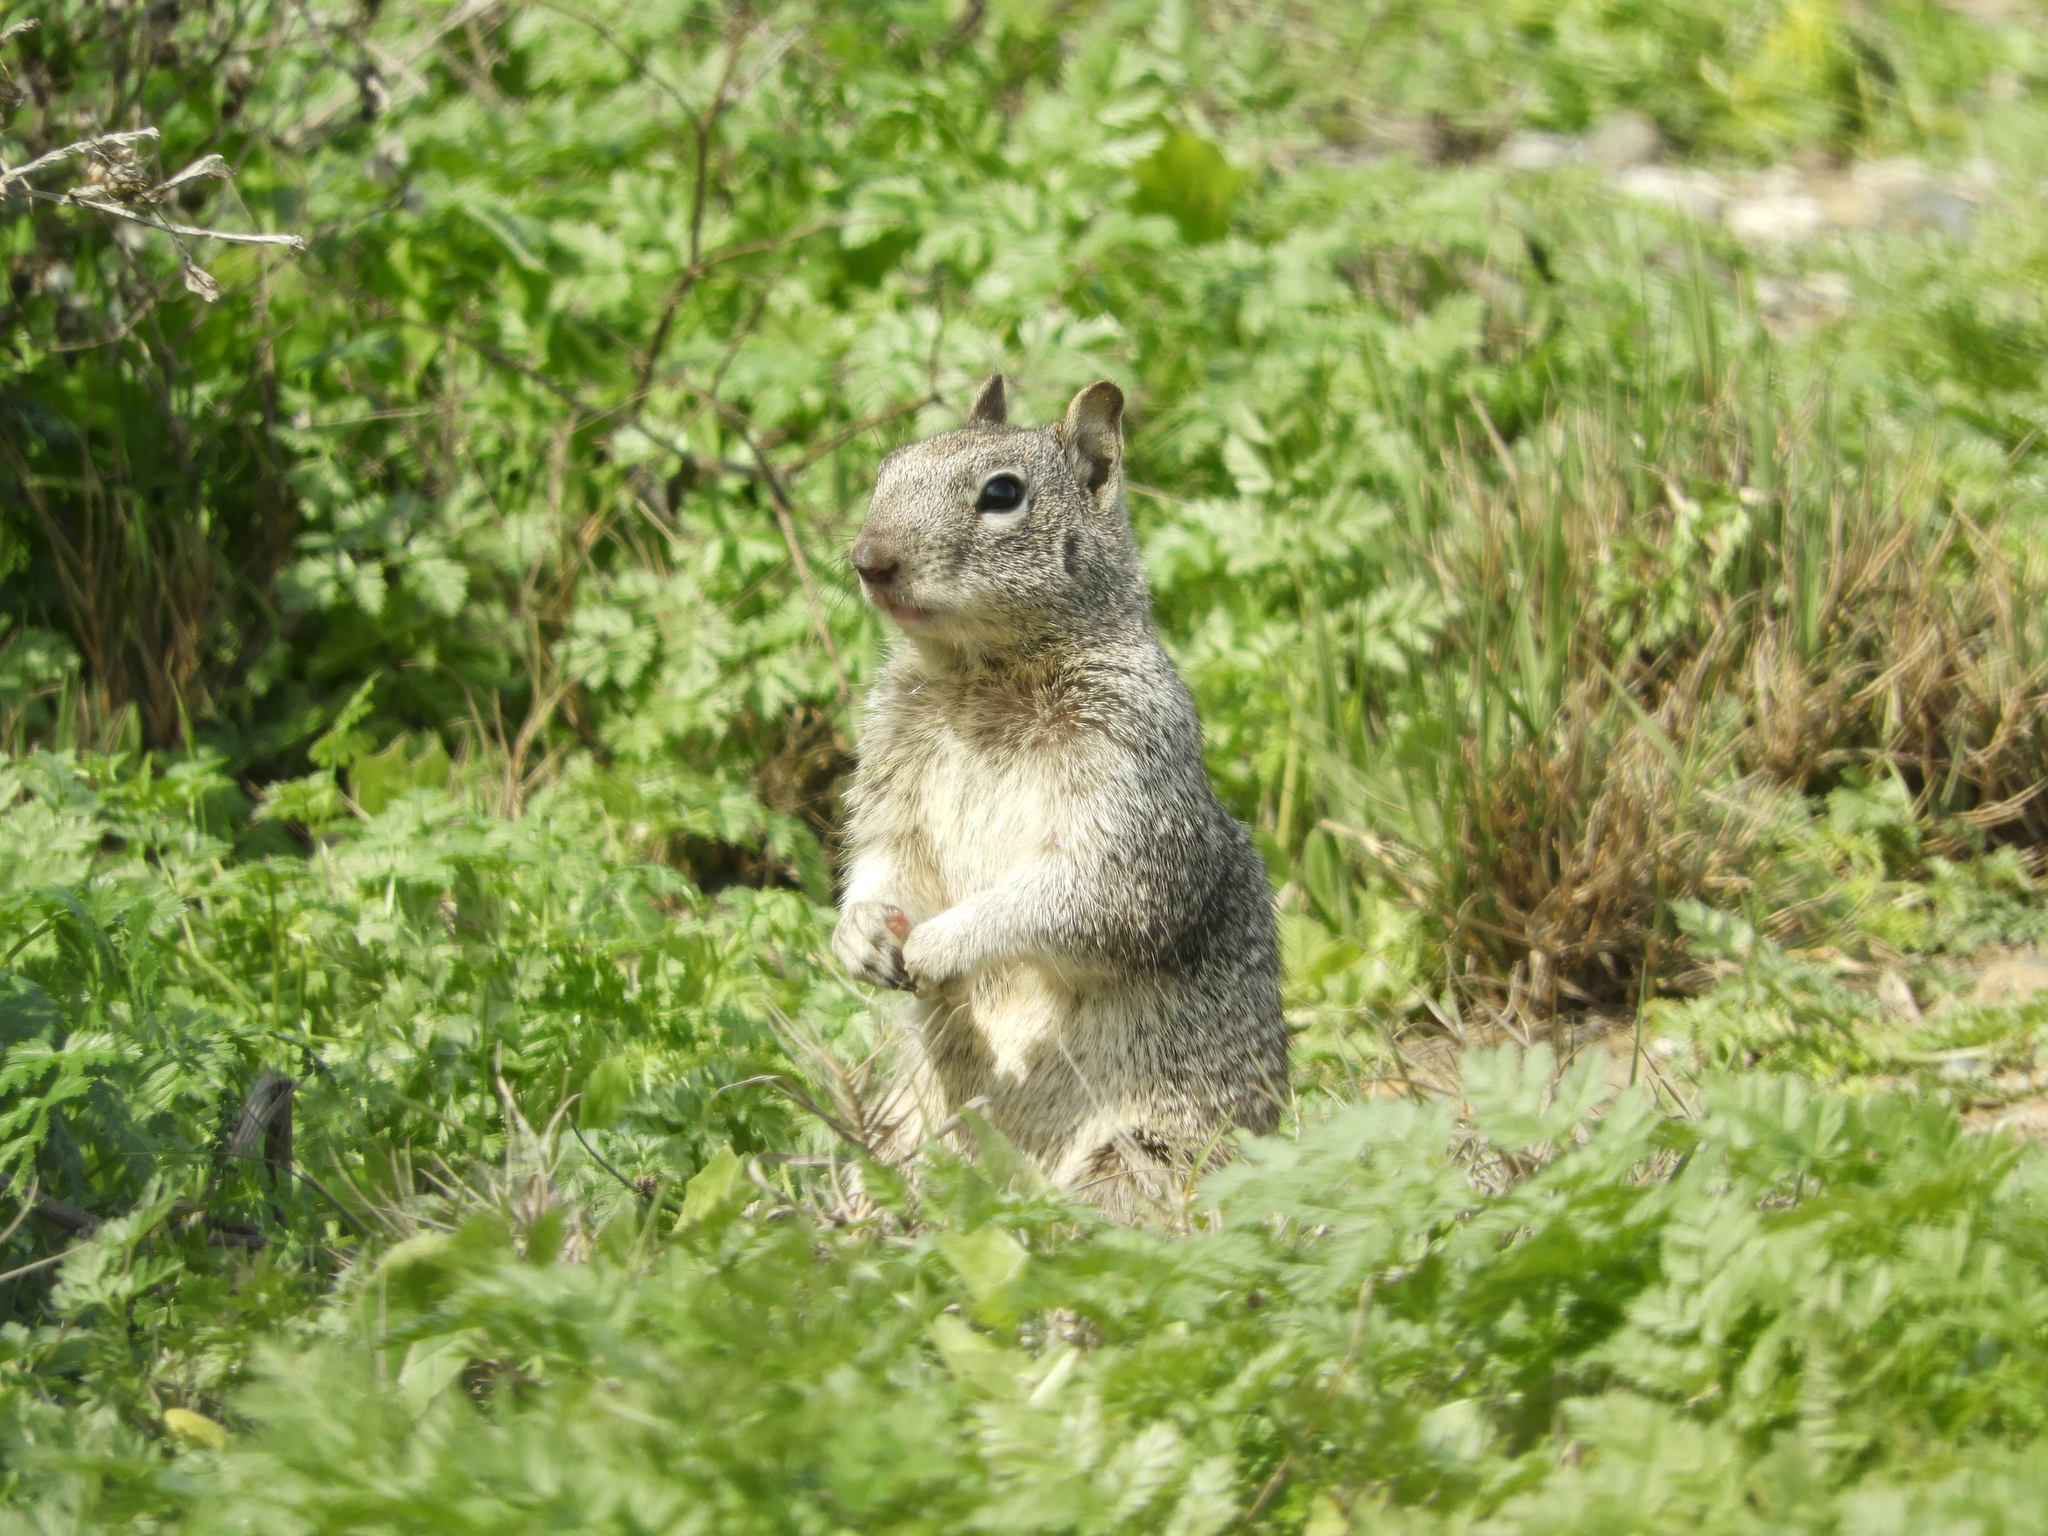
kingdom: Animalia
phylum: Chordata
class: Mammalia
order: Rodentia
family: Sciuridae
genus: Otospermophilus
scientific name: Otospermophilus beecheyi
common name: California ground squirrel
